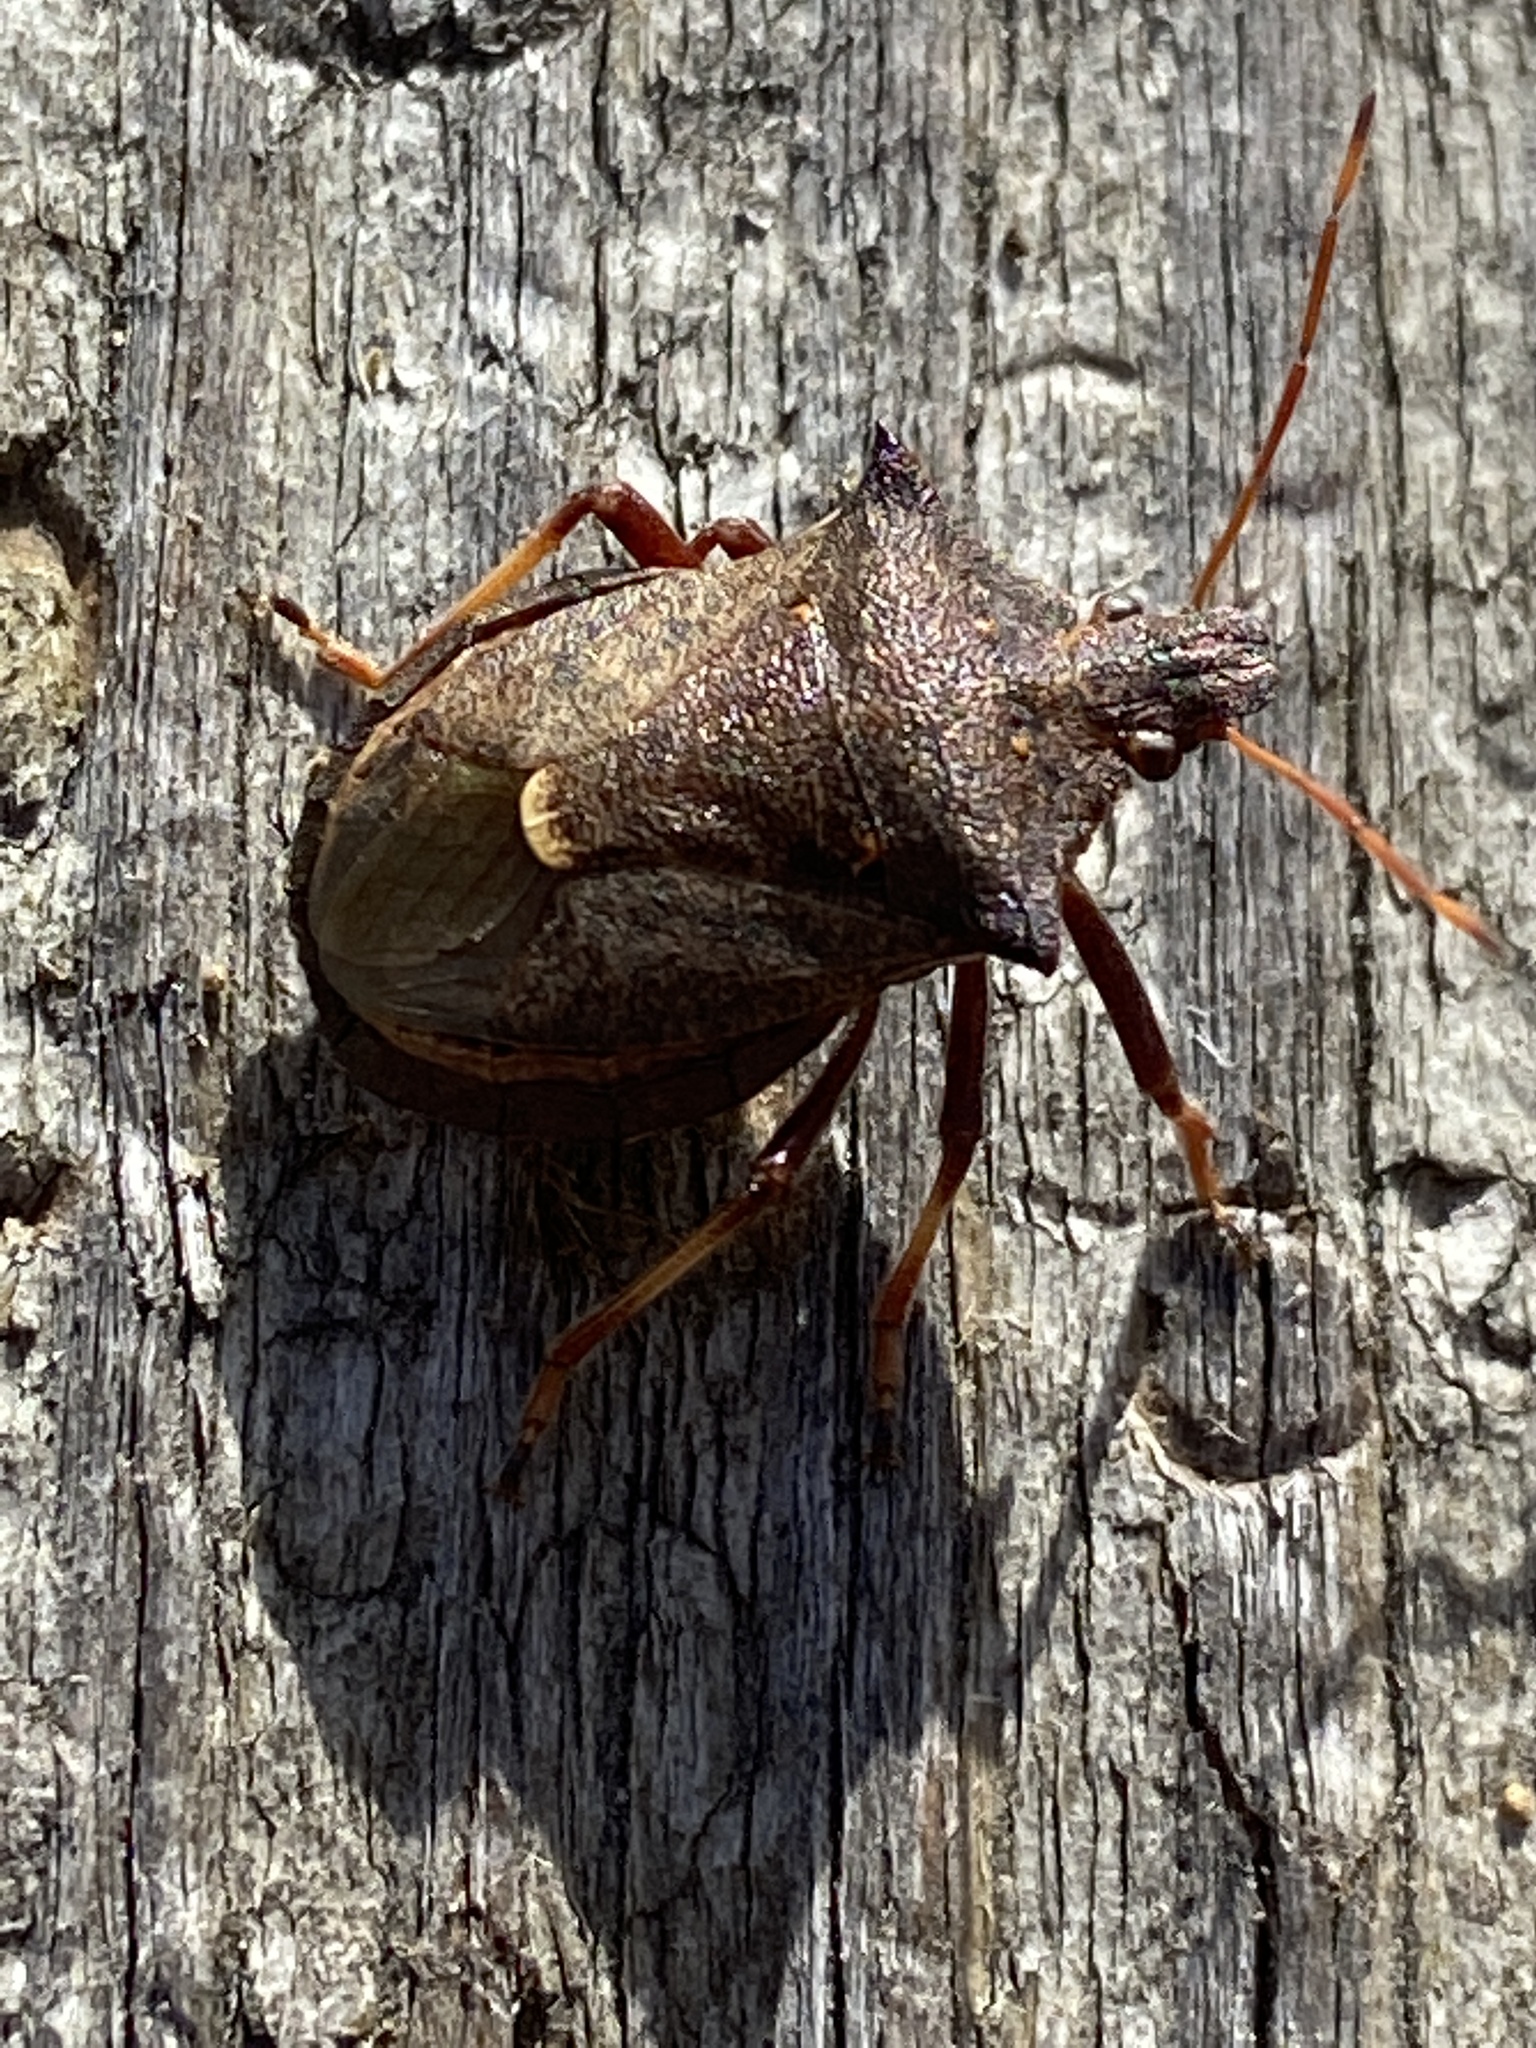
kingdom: Animalia
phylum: Arthropoda
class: Insecta
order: Hemiptera
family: Pentatomidae
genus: Picromerus
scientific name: Picromerus bidens
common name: Spiked shieldbug
